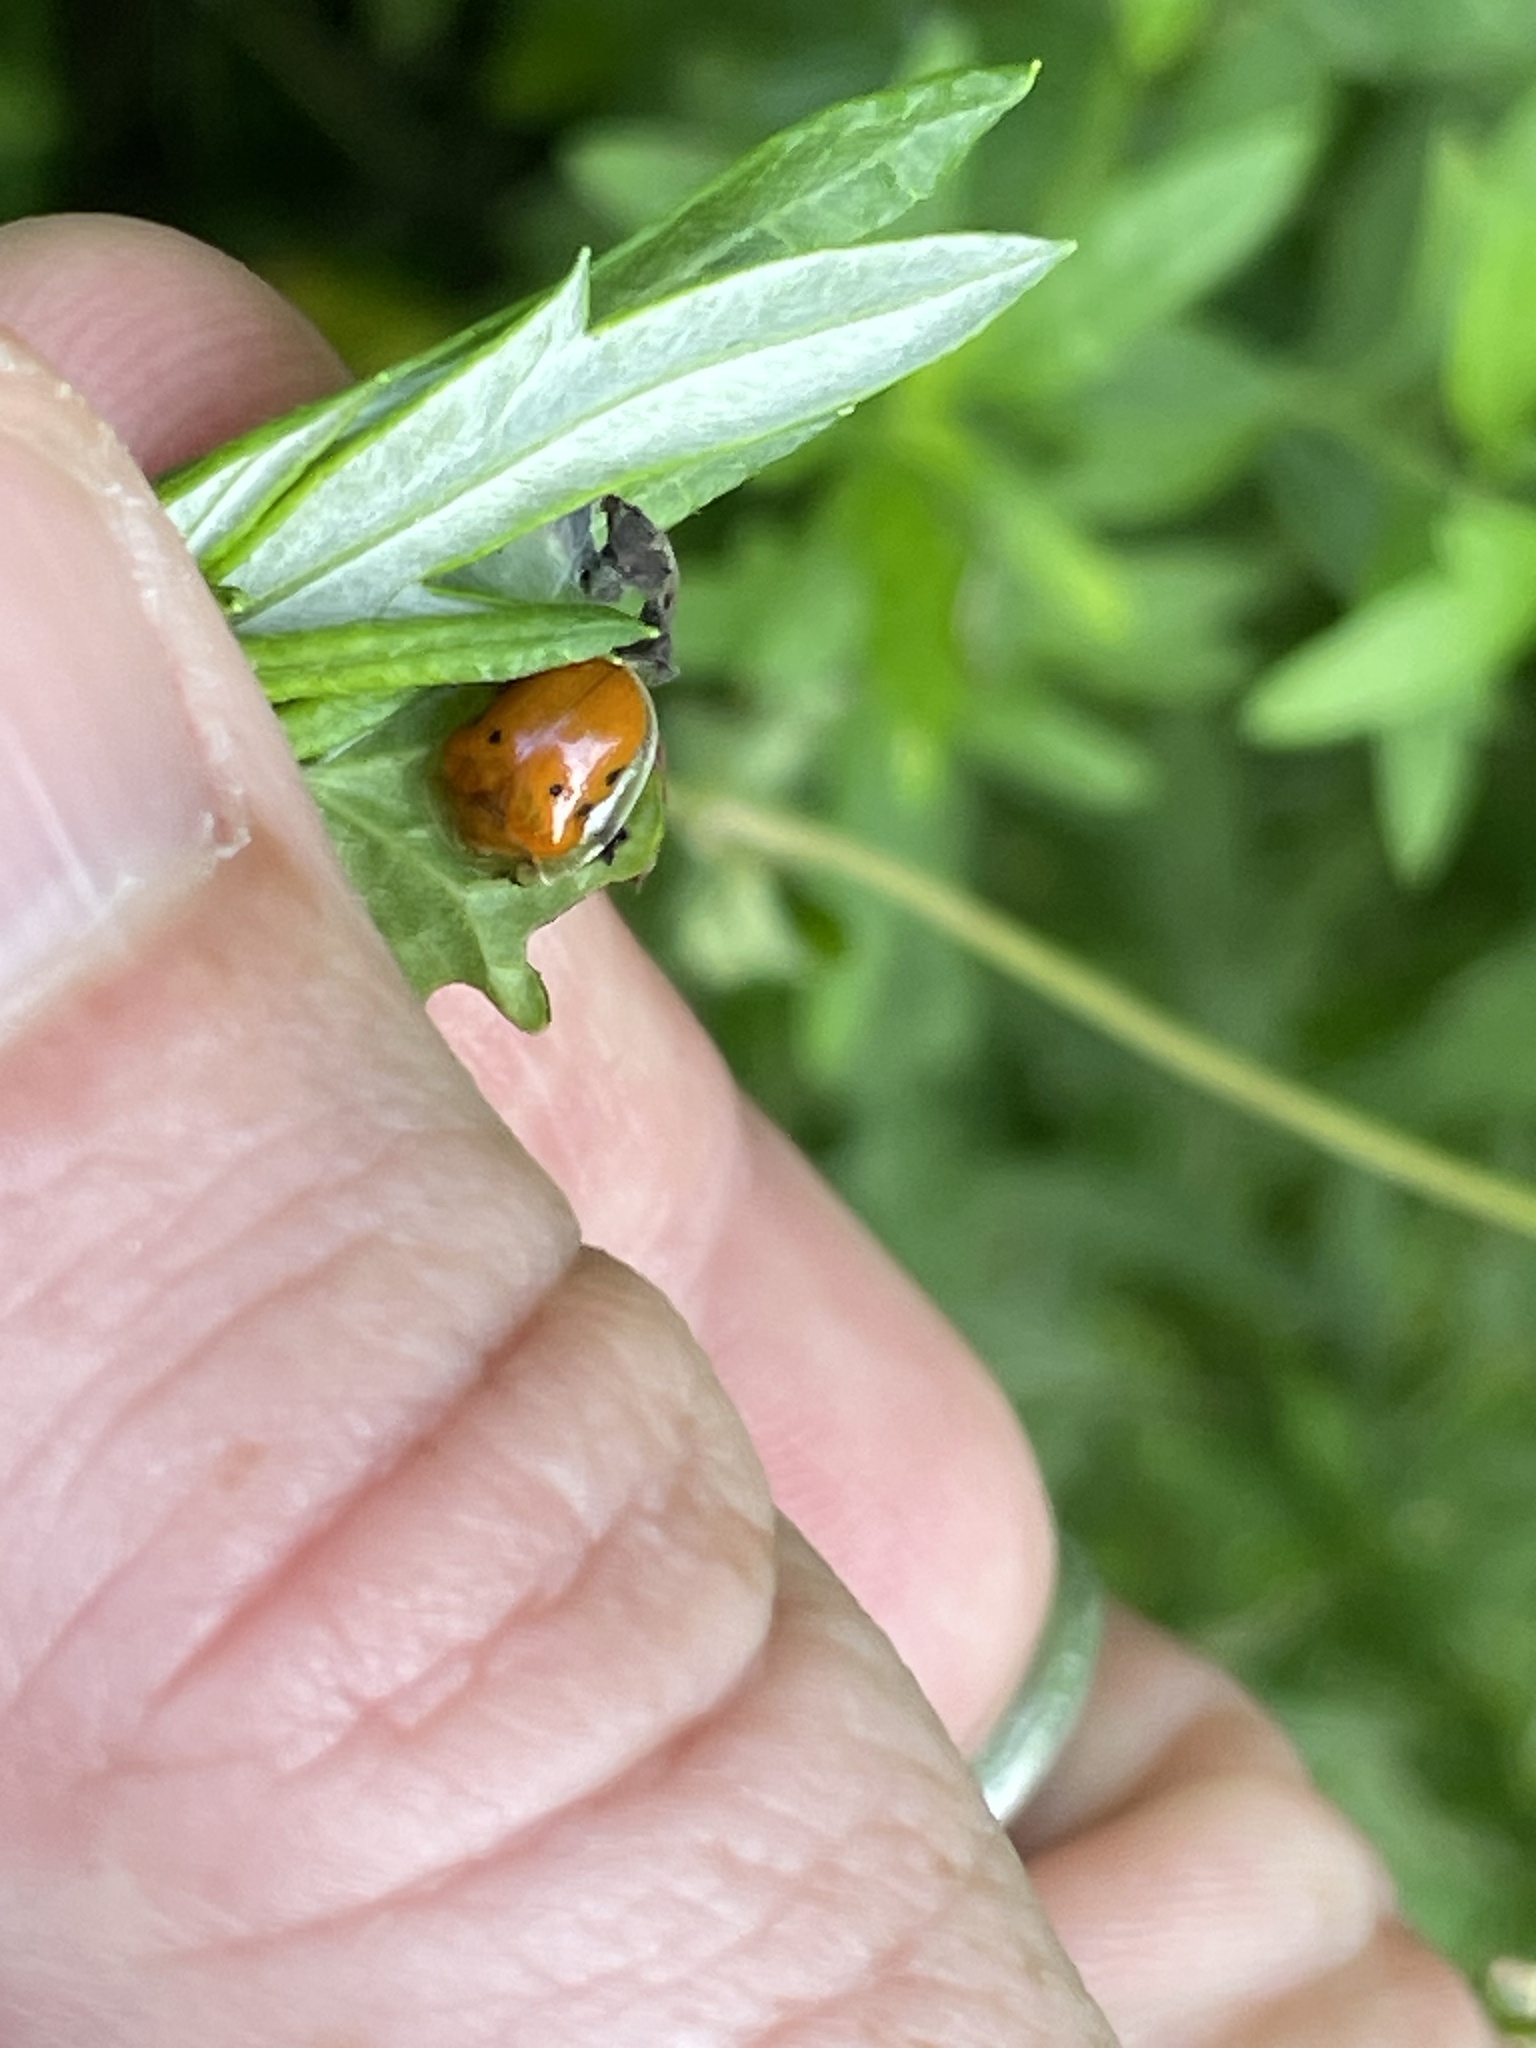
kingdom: Animalia
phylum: Arthropoda
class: Insecta
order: Coleoptera
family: Chrysomelidae
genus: Charidotella
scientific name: Charidotella sexpunctata
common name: Golden tortoise beetle
